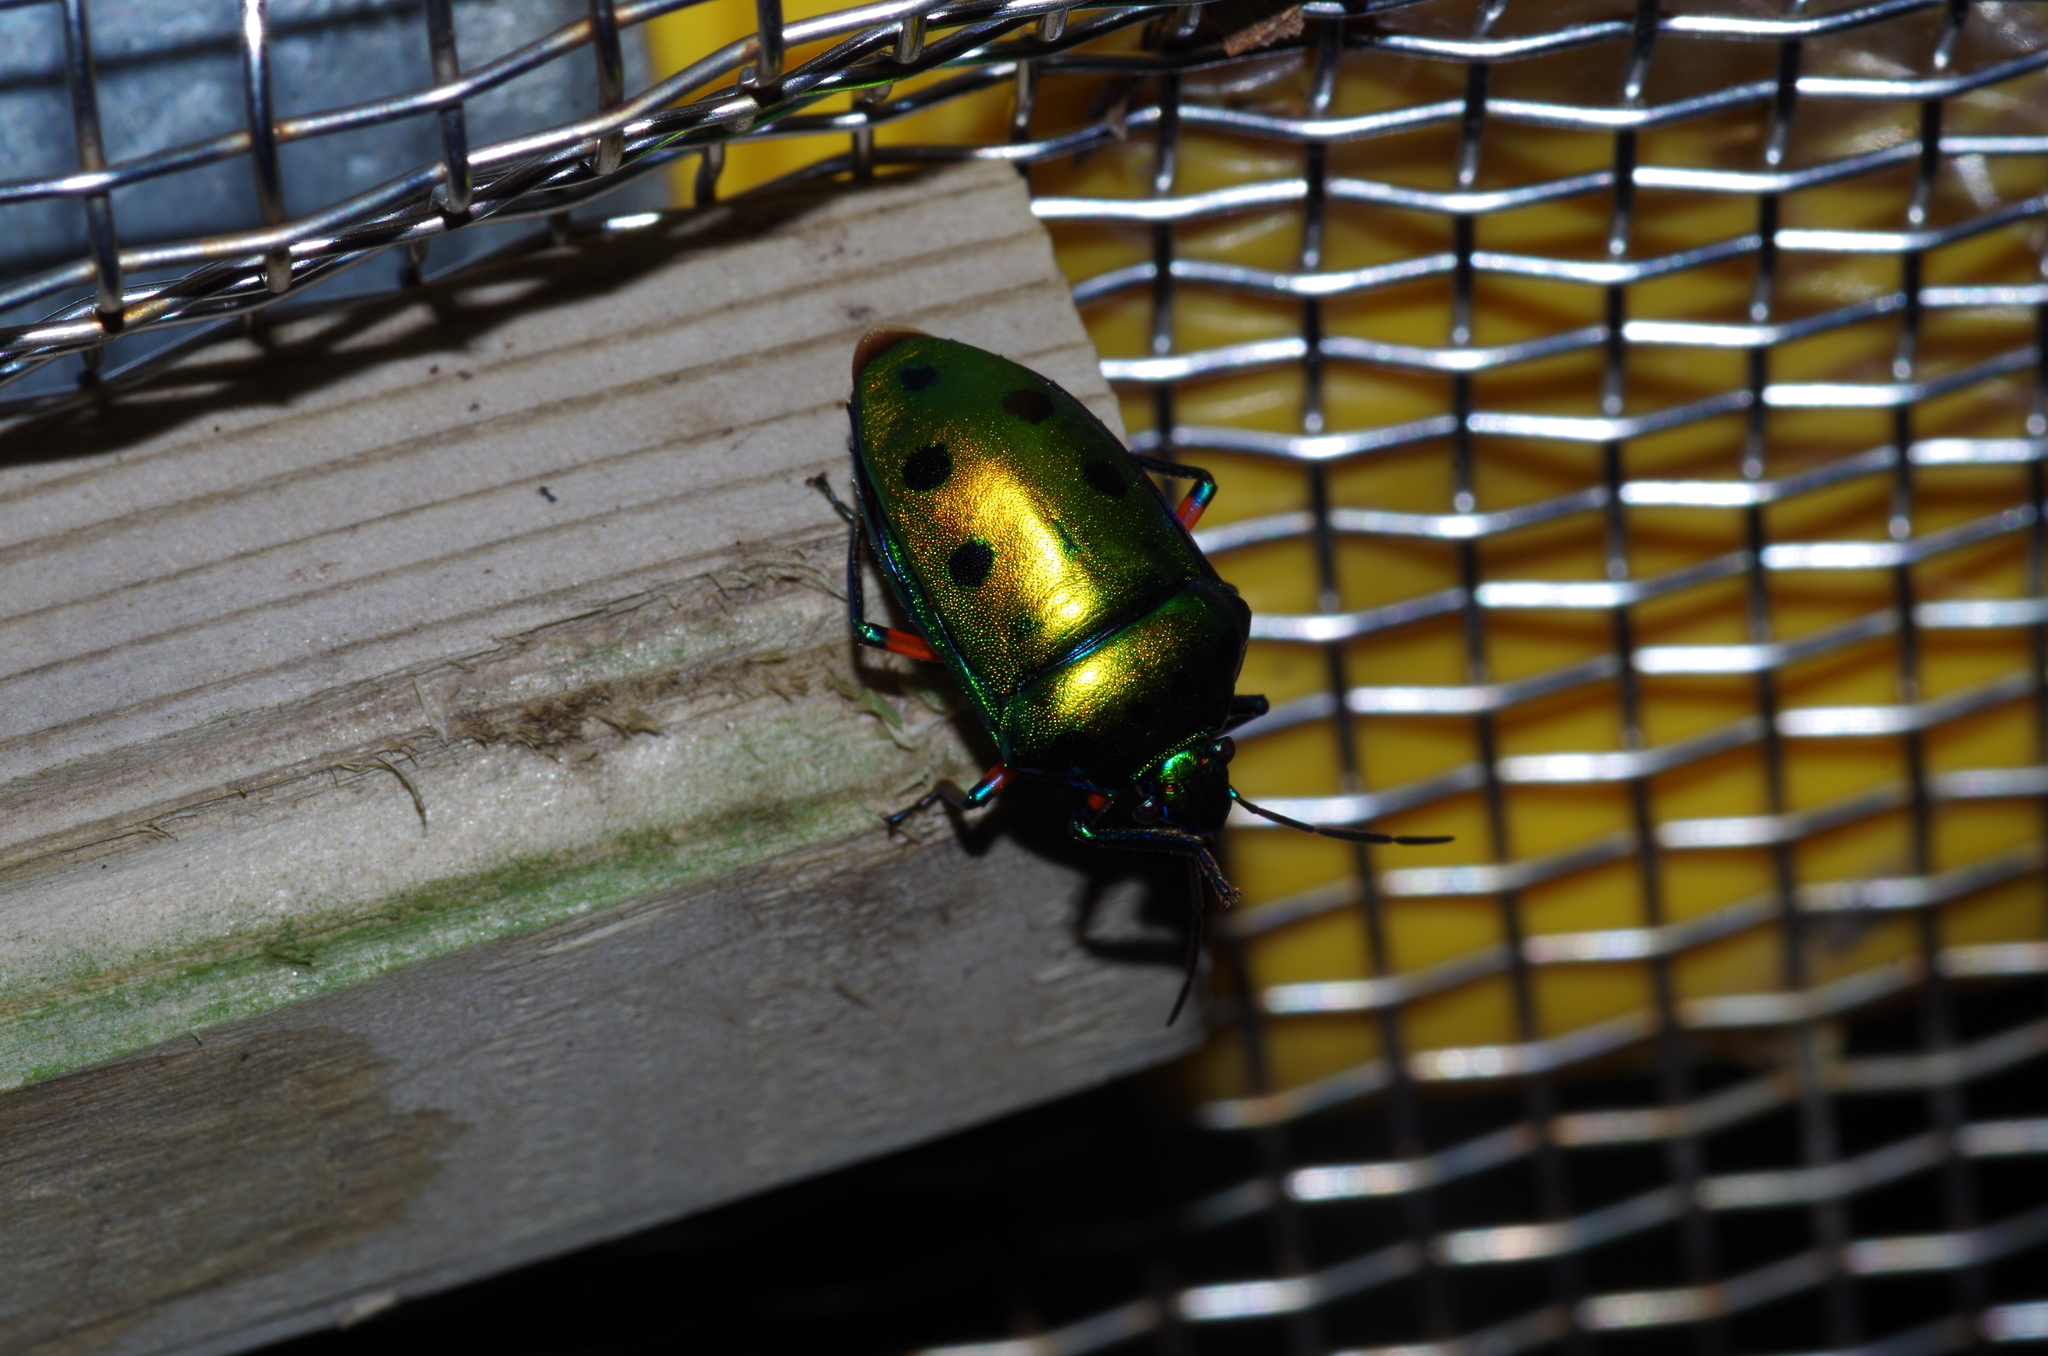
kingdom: Animalia
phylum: Arthropoda
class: Insecta
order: Hemiptera
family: Scutelleridae
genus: Calliphara
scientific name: Calliphara excellens
